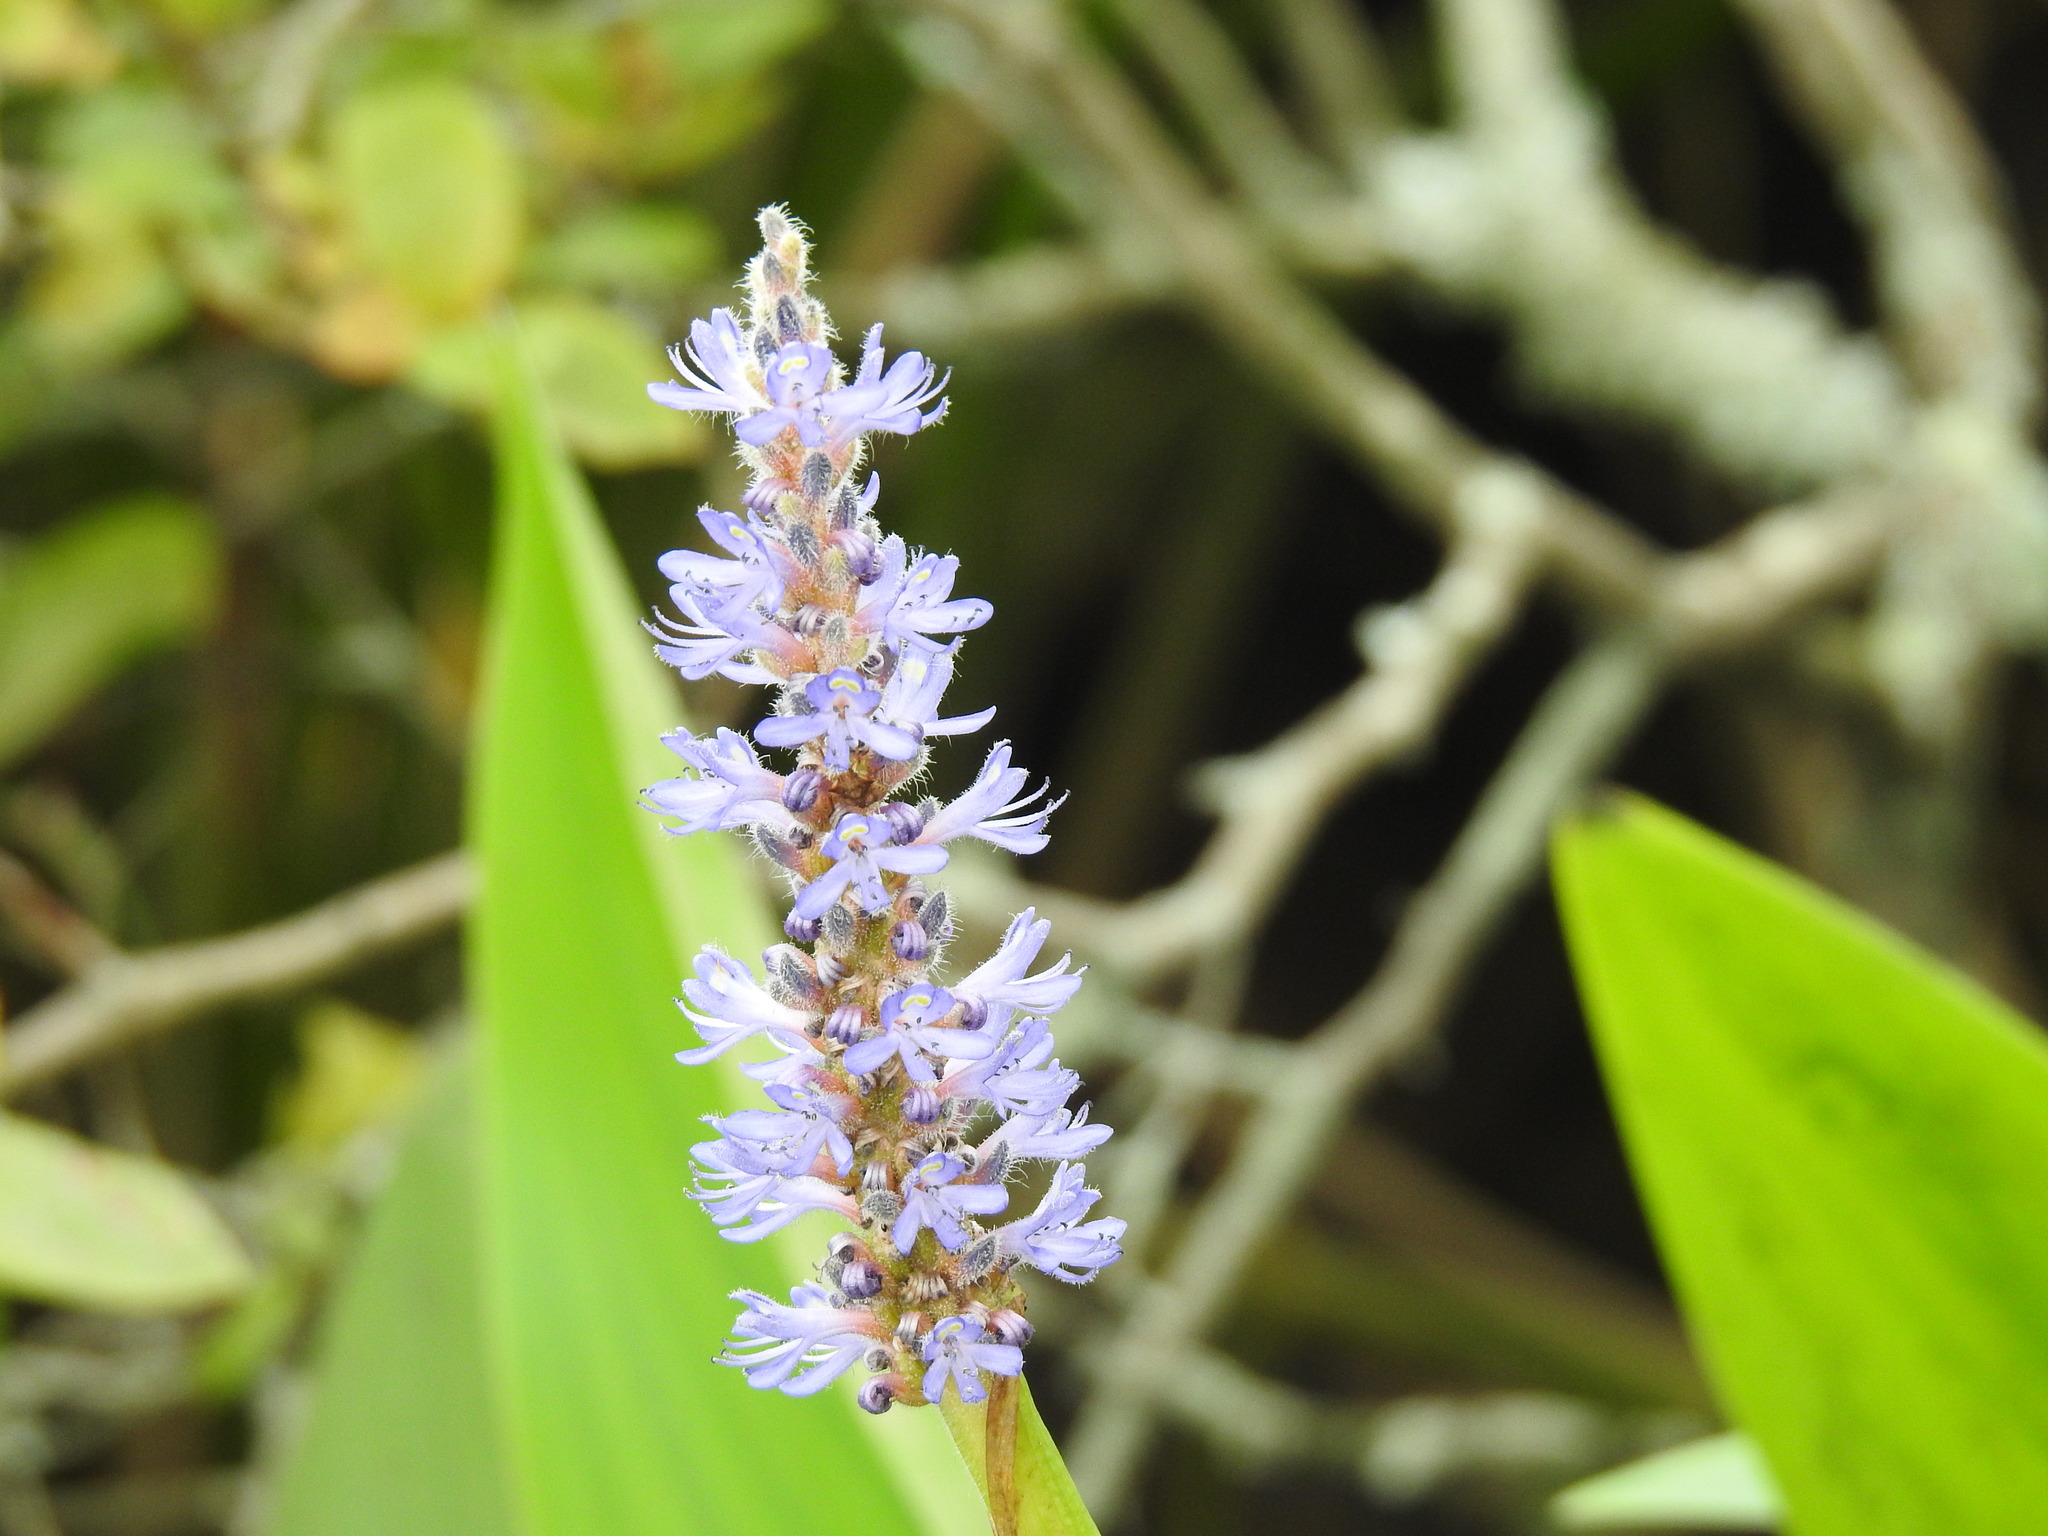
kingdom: Plantae
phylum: Tracheophyta
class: Liliopsida
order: Commelinales
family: Pontederiaceae
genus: Pontederia
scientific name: Pontederia cordata
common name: Pickerelweed
